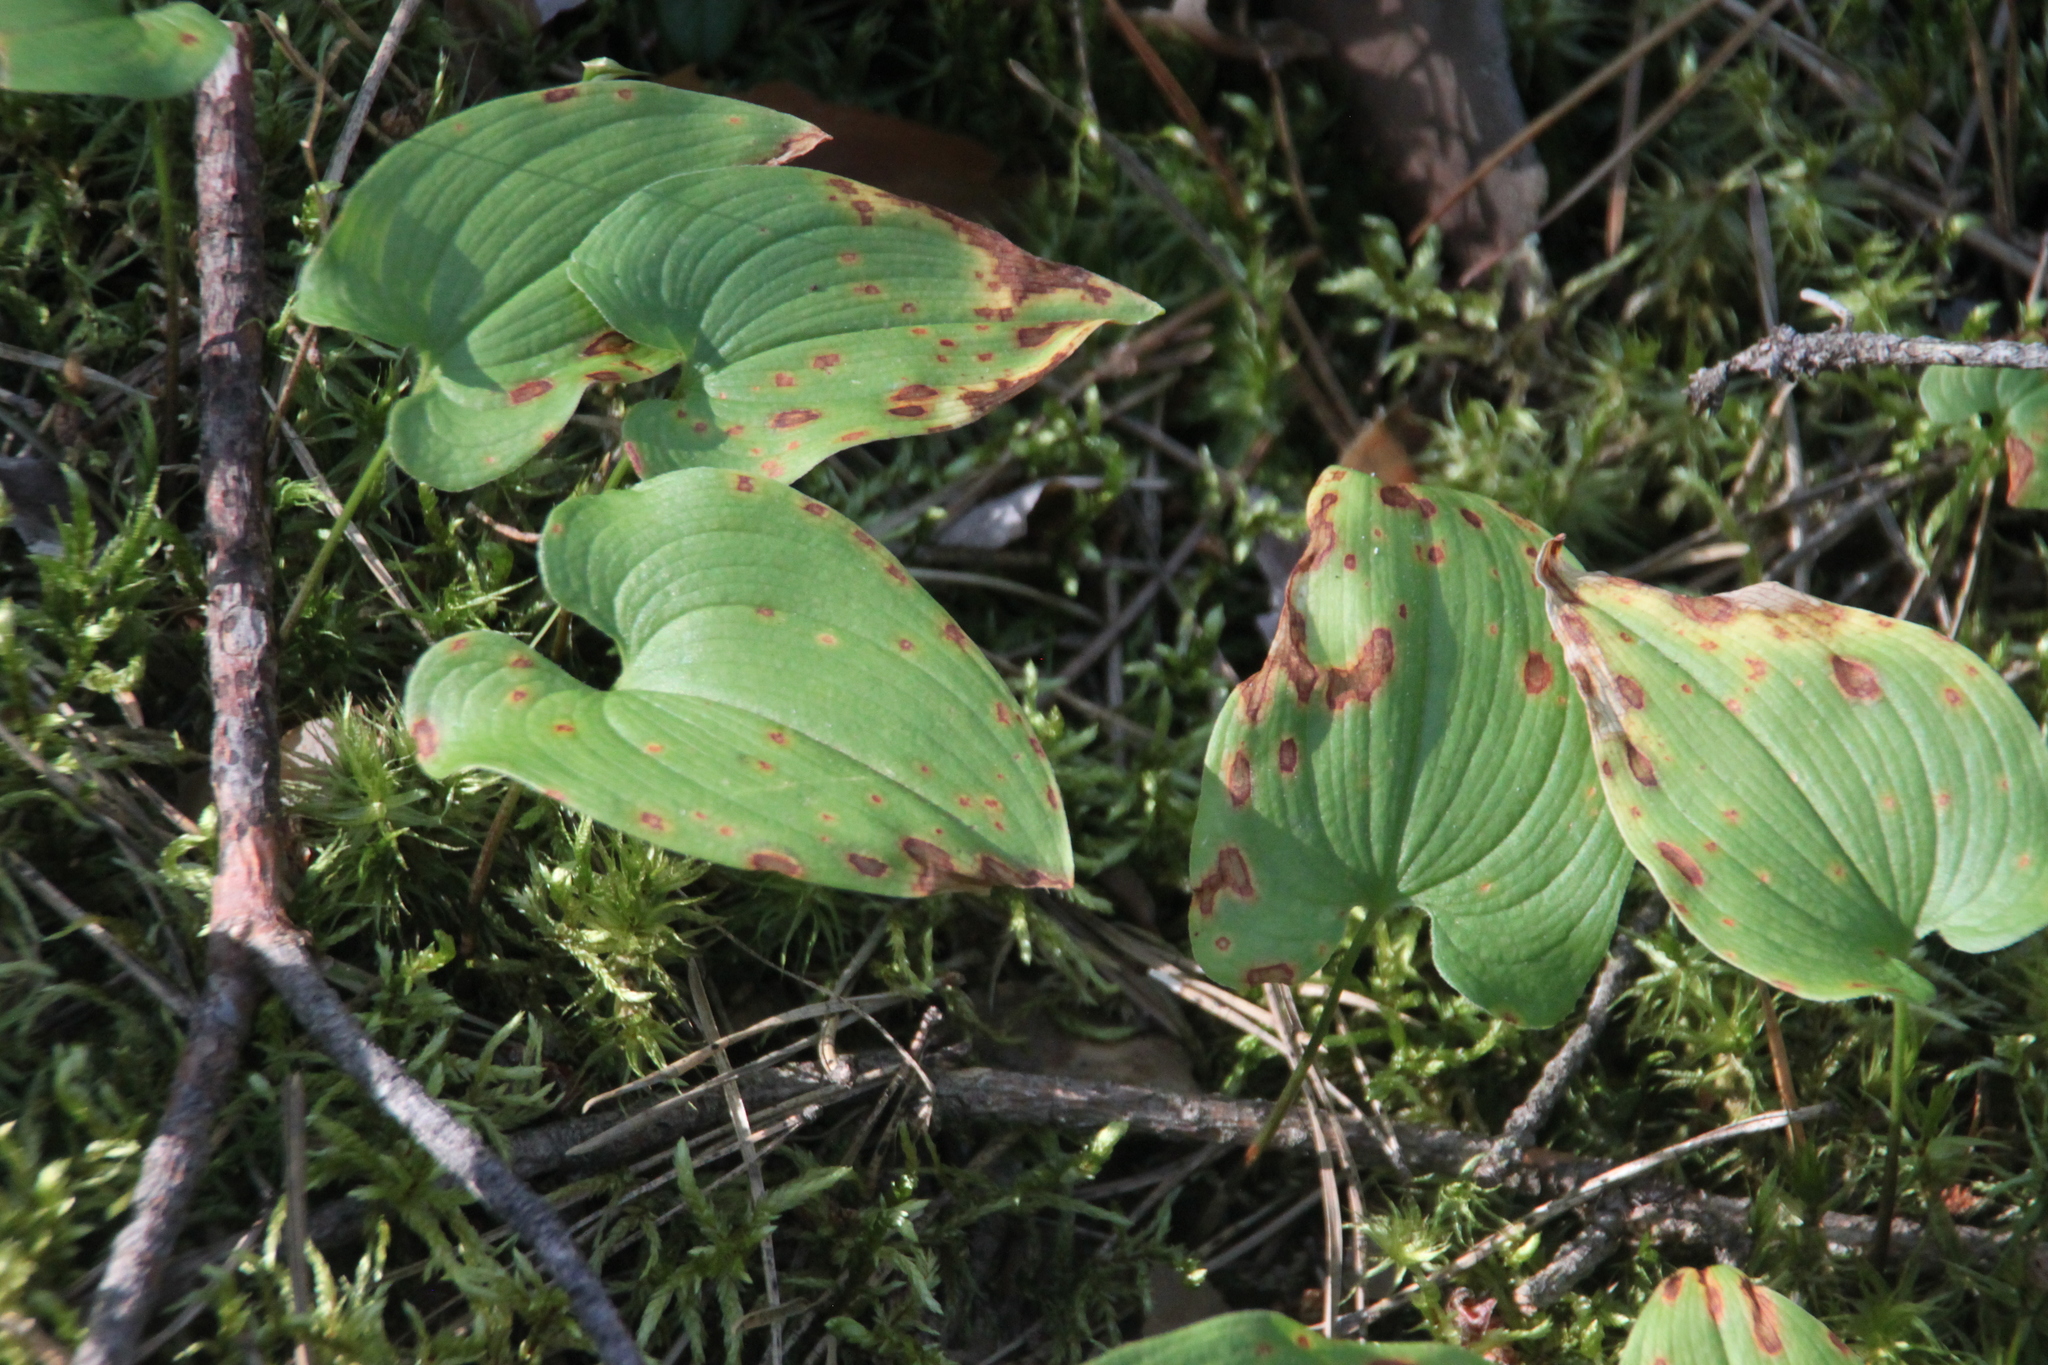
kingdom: Plantae
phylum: Tracheophyta
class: Liliopsida
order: Asparagales
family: Asparagaceae
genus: Maianthemum
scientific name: Maianthemum bifolium
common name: May lily
